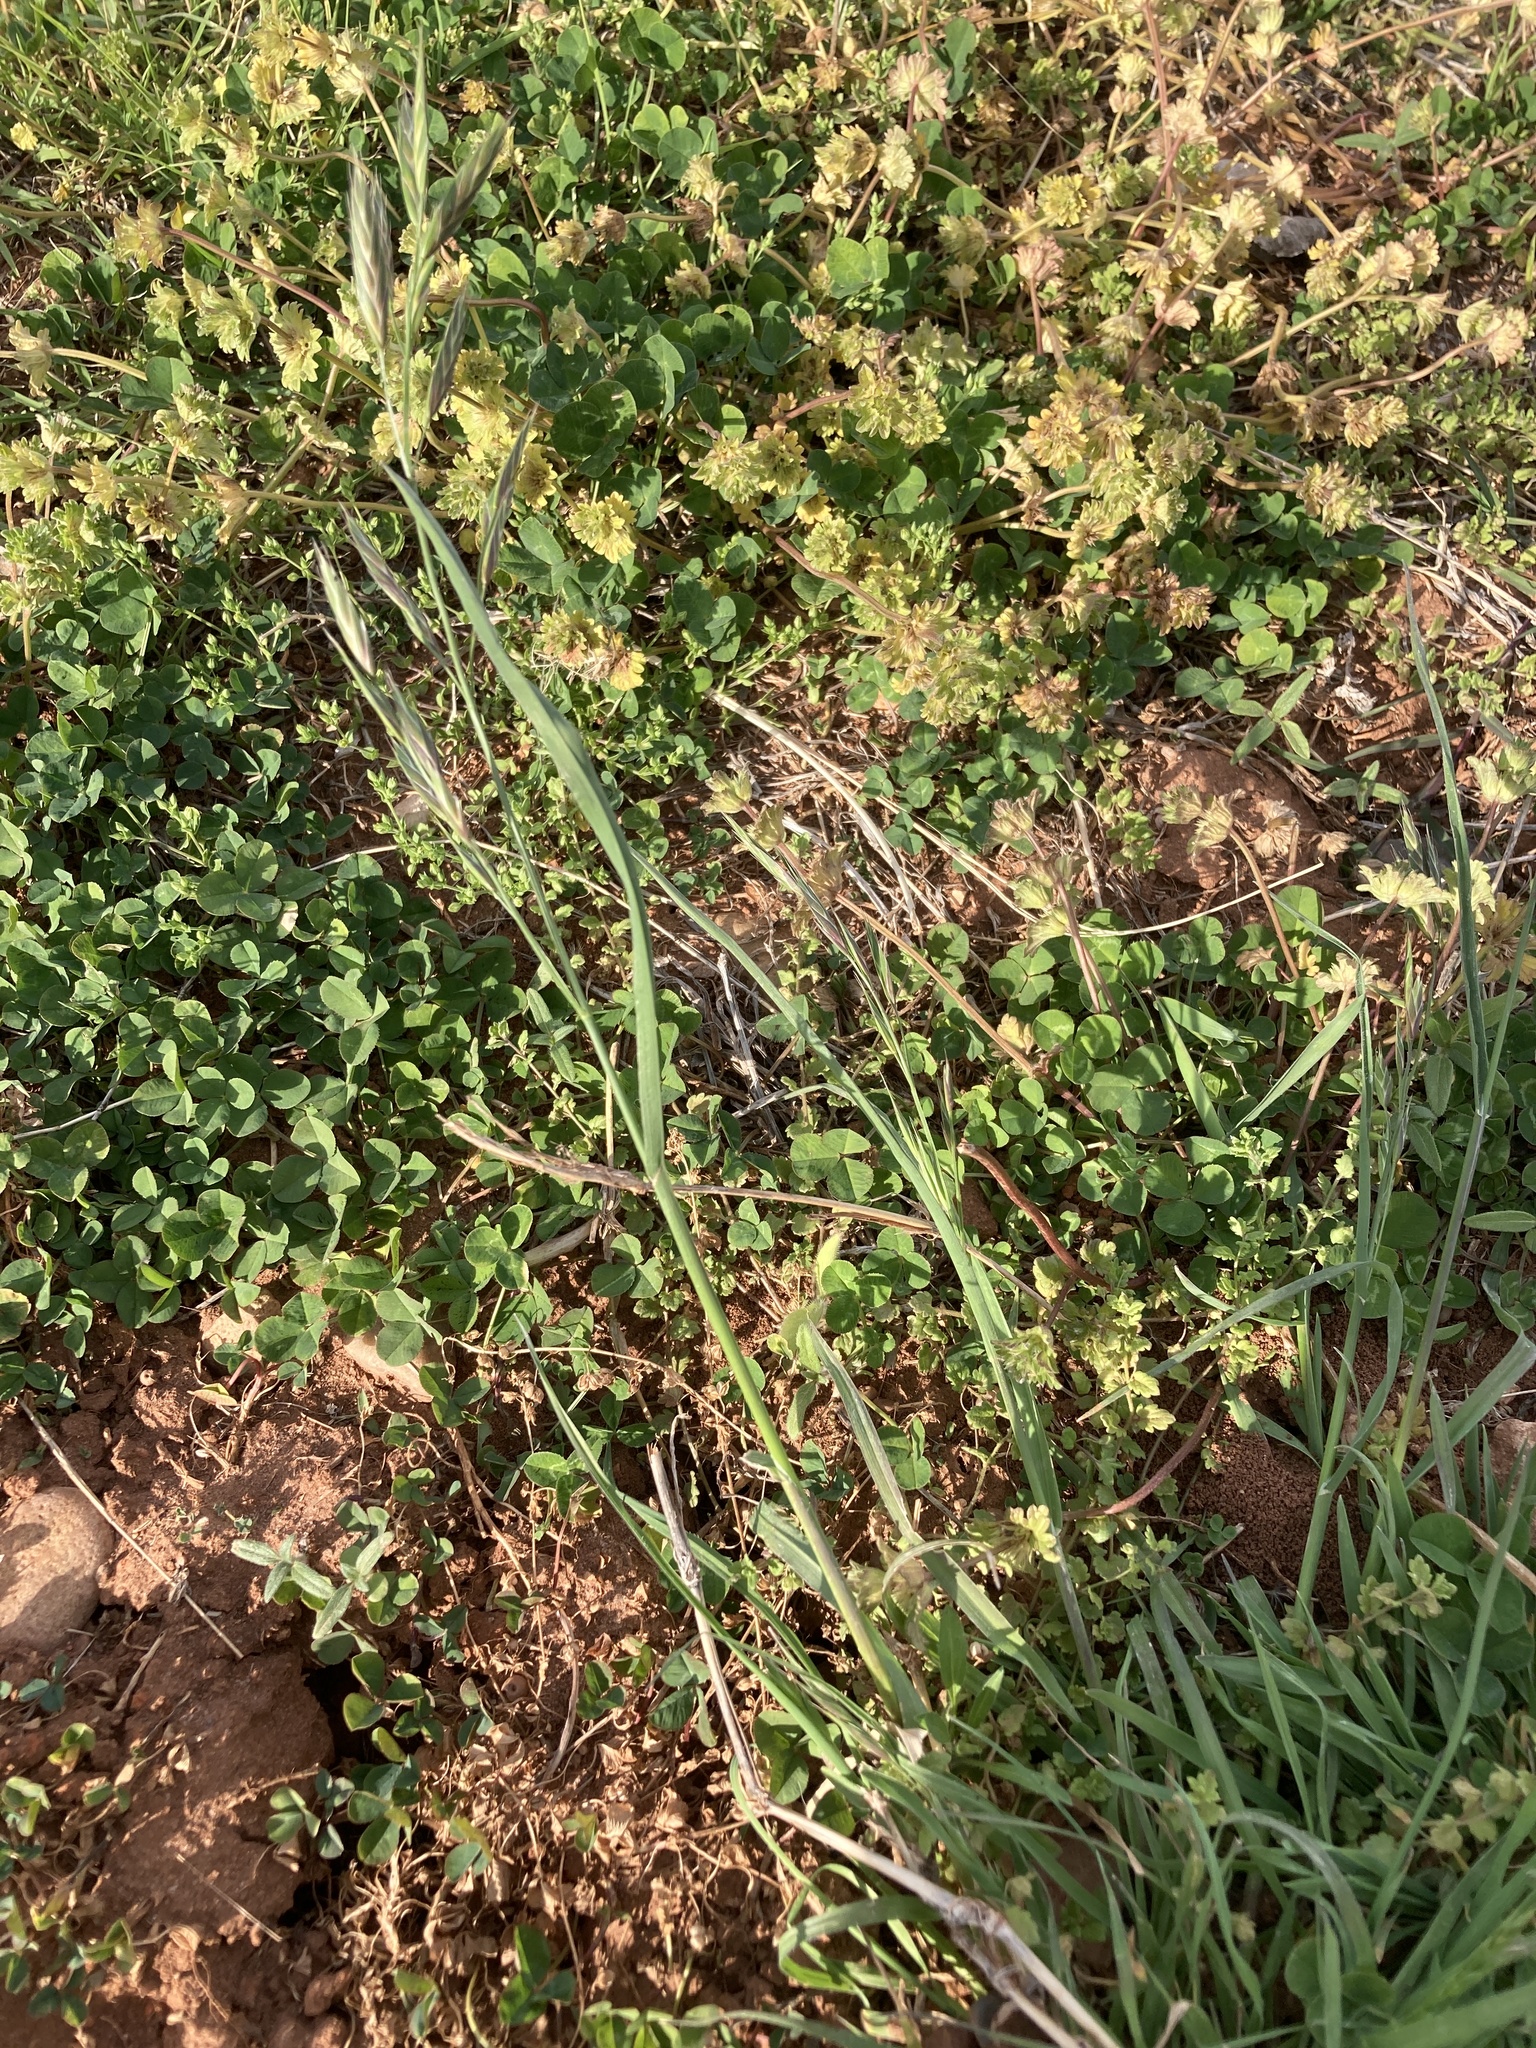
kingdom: Plantae
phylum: Tracheophyta
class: Liliopsida
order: Poales
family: Poaceae
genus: Bromus
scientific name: Bromus catharticus
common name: Rescuegrass
